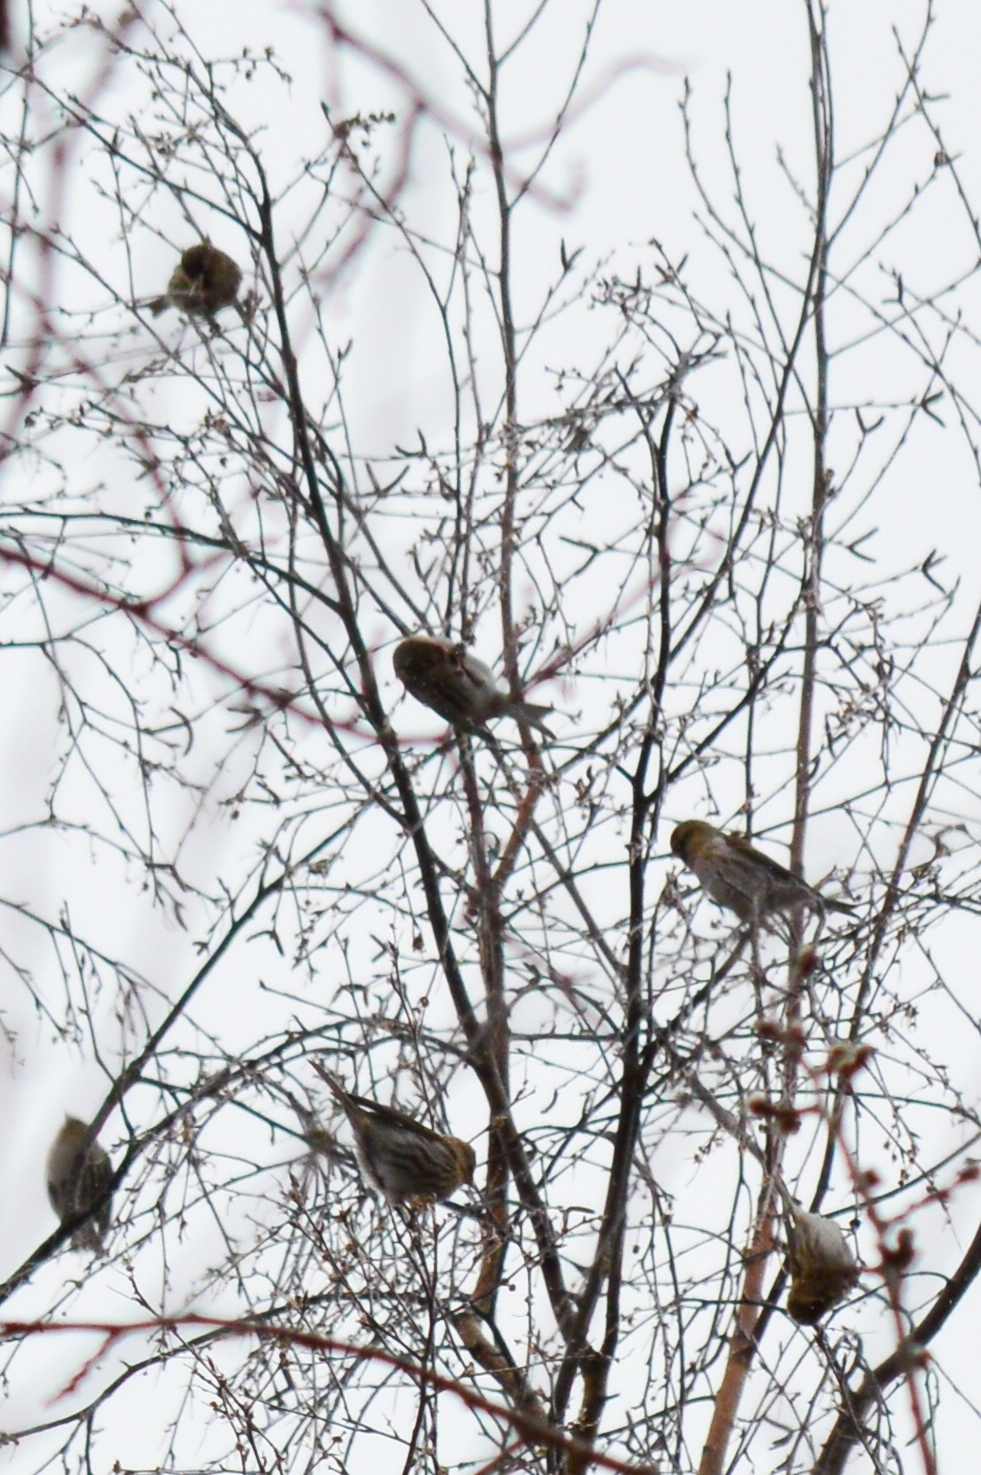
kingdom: Animalia
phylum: Chordata
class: Aves
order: Passeriformes
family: Fringillidae
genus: Acanthis
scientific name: Acanthis flammea
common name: Common redpoll
